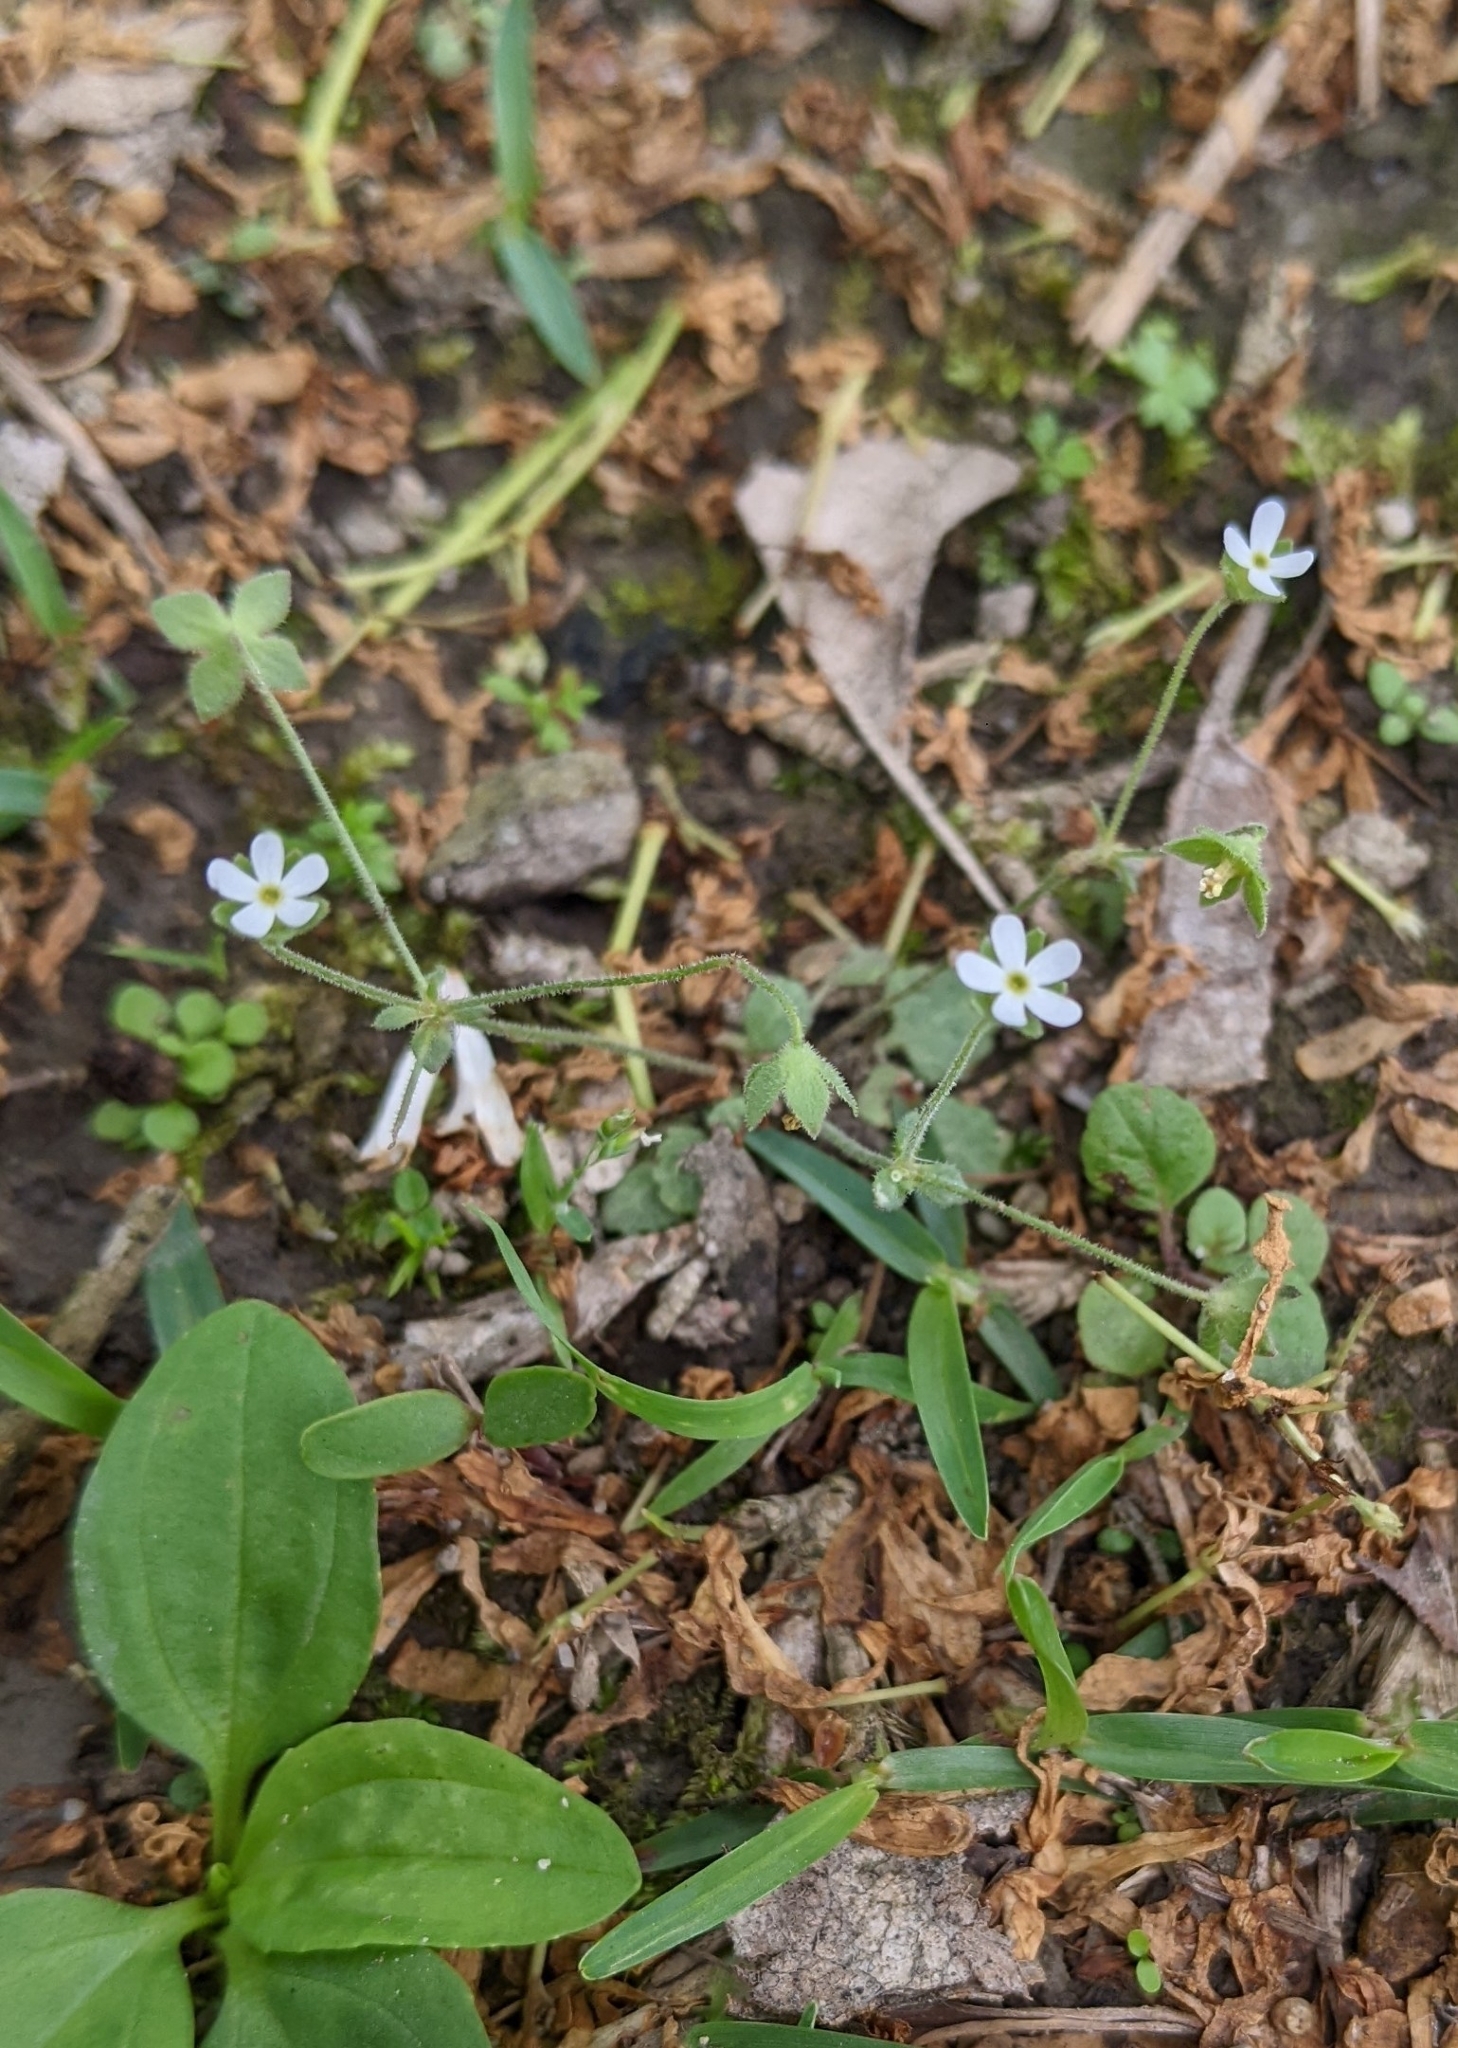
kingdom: Plantae
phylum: Tracheophyta
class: Magnoliopsida
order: Ericales
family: Primulaceae
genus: Androsace
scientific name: Androsace umbellata
